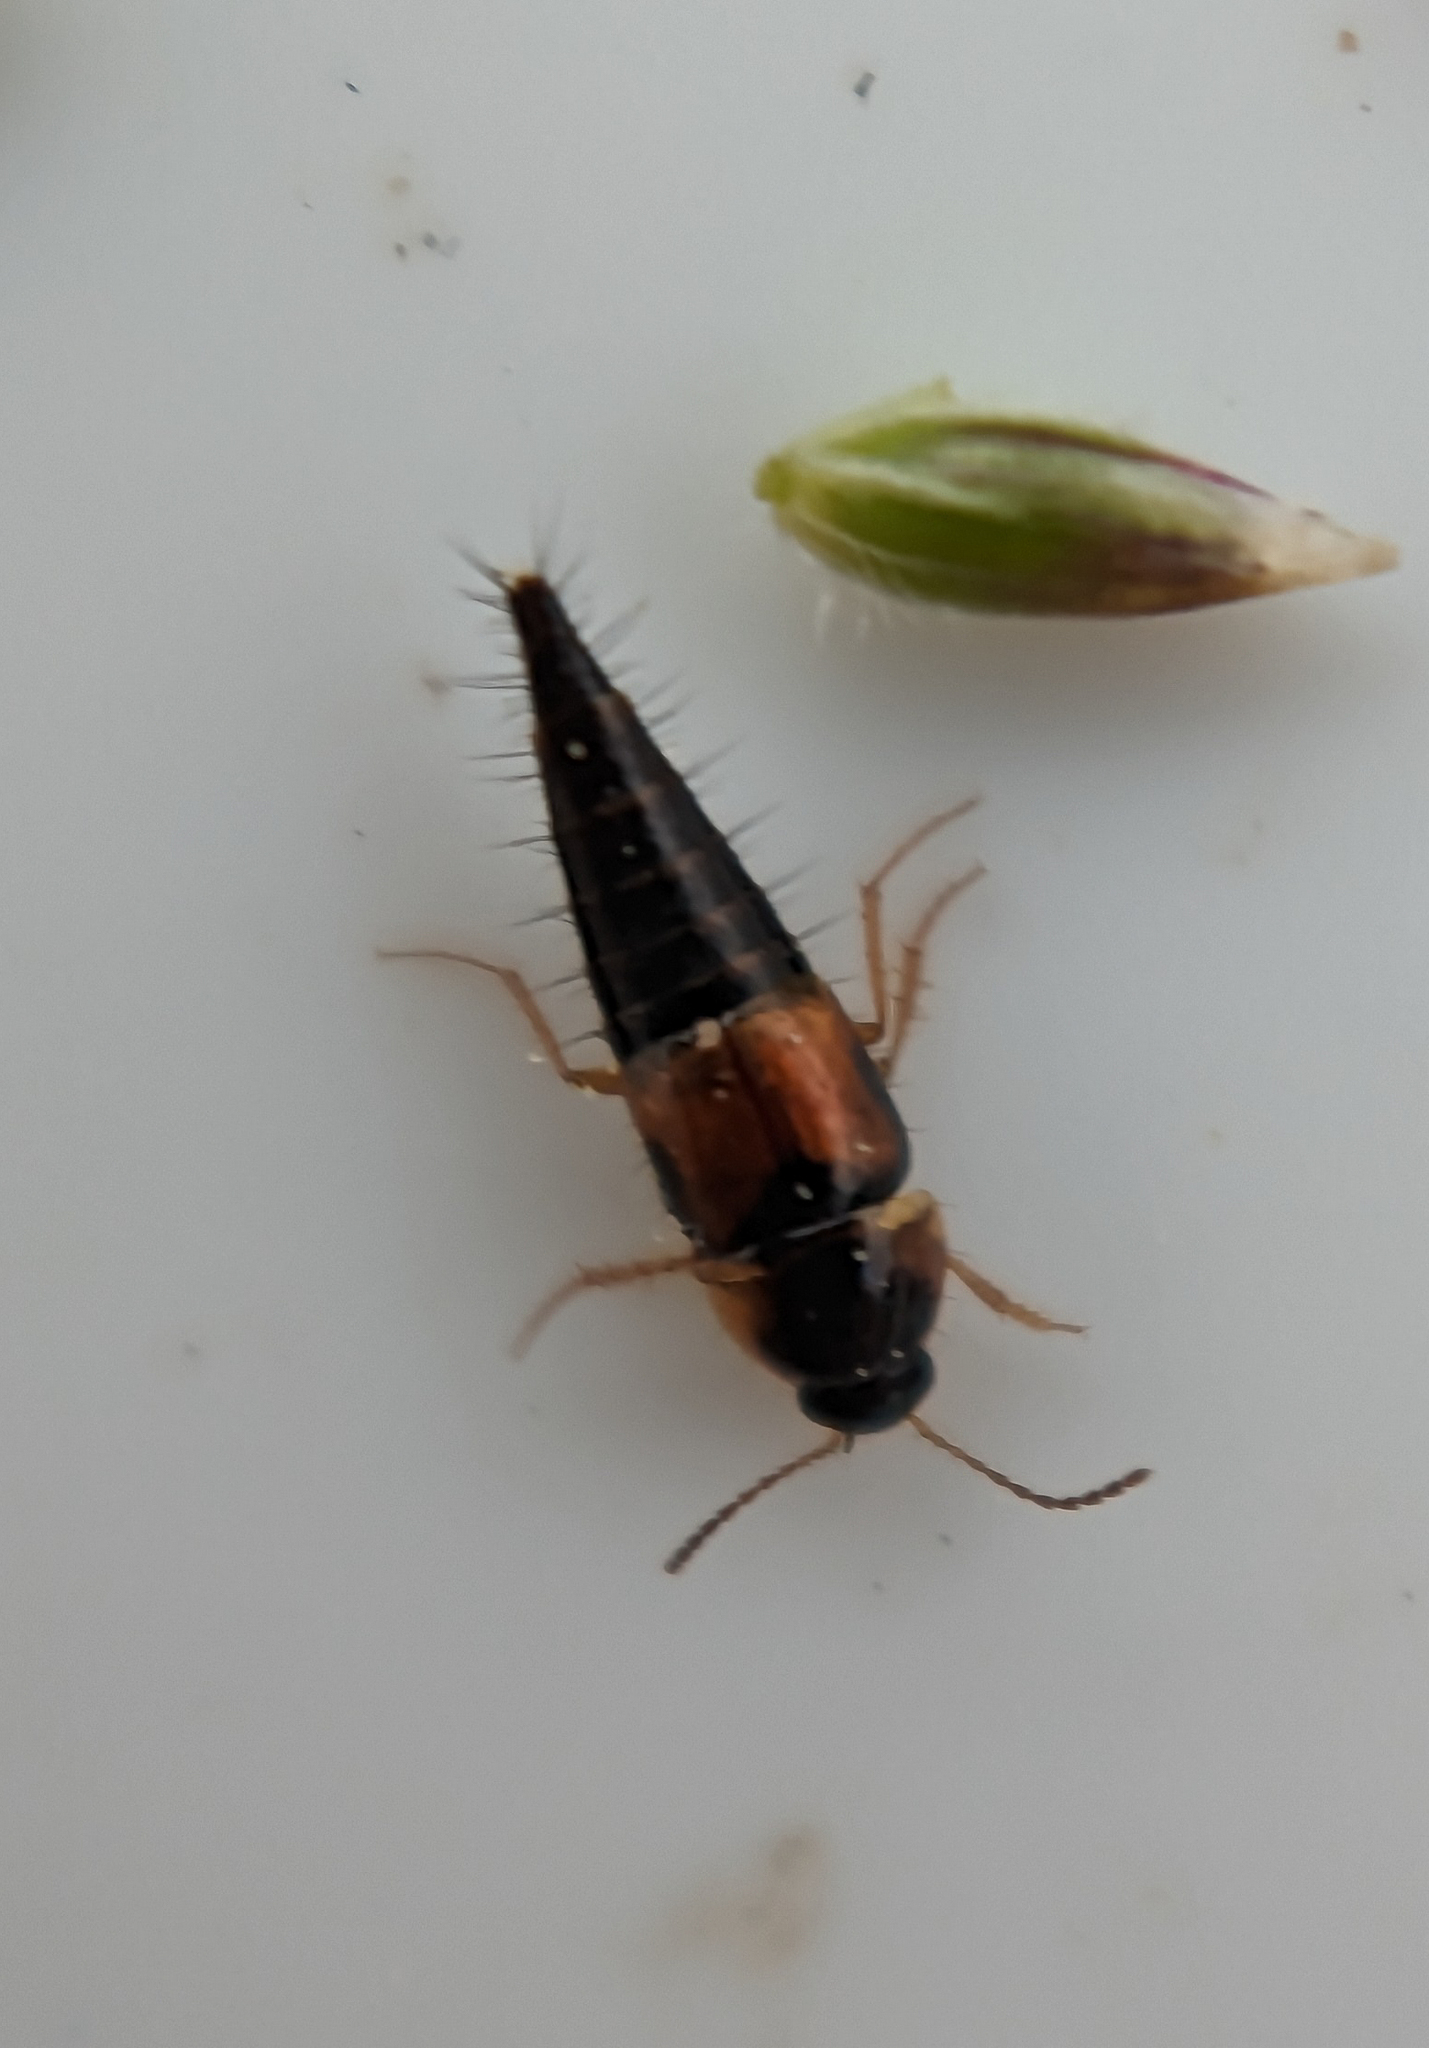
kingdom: Animalia
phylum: Arthropoda
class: Insecta
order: Coleoptera
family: Staphylinidae
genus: Tachyporus
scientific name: Tachyporus hypnorum
